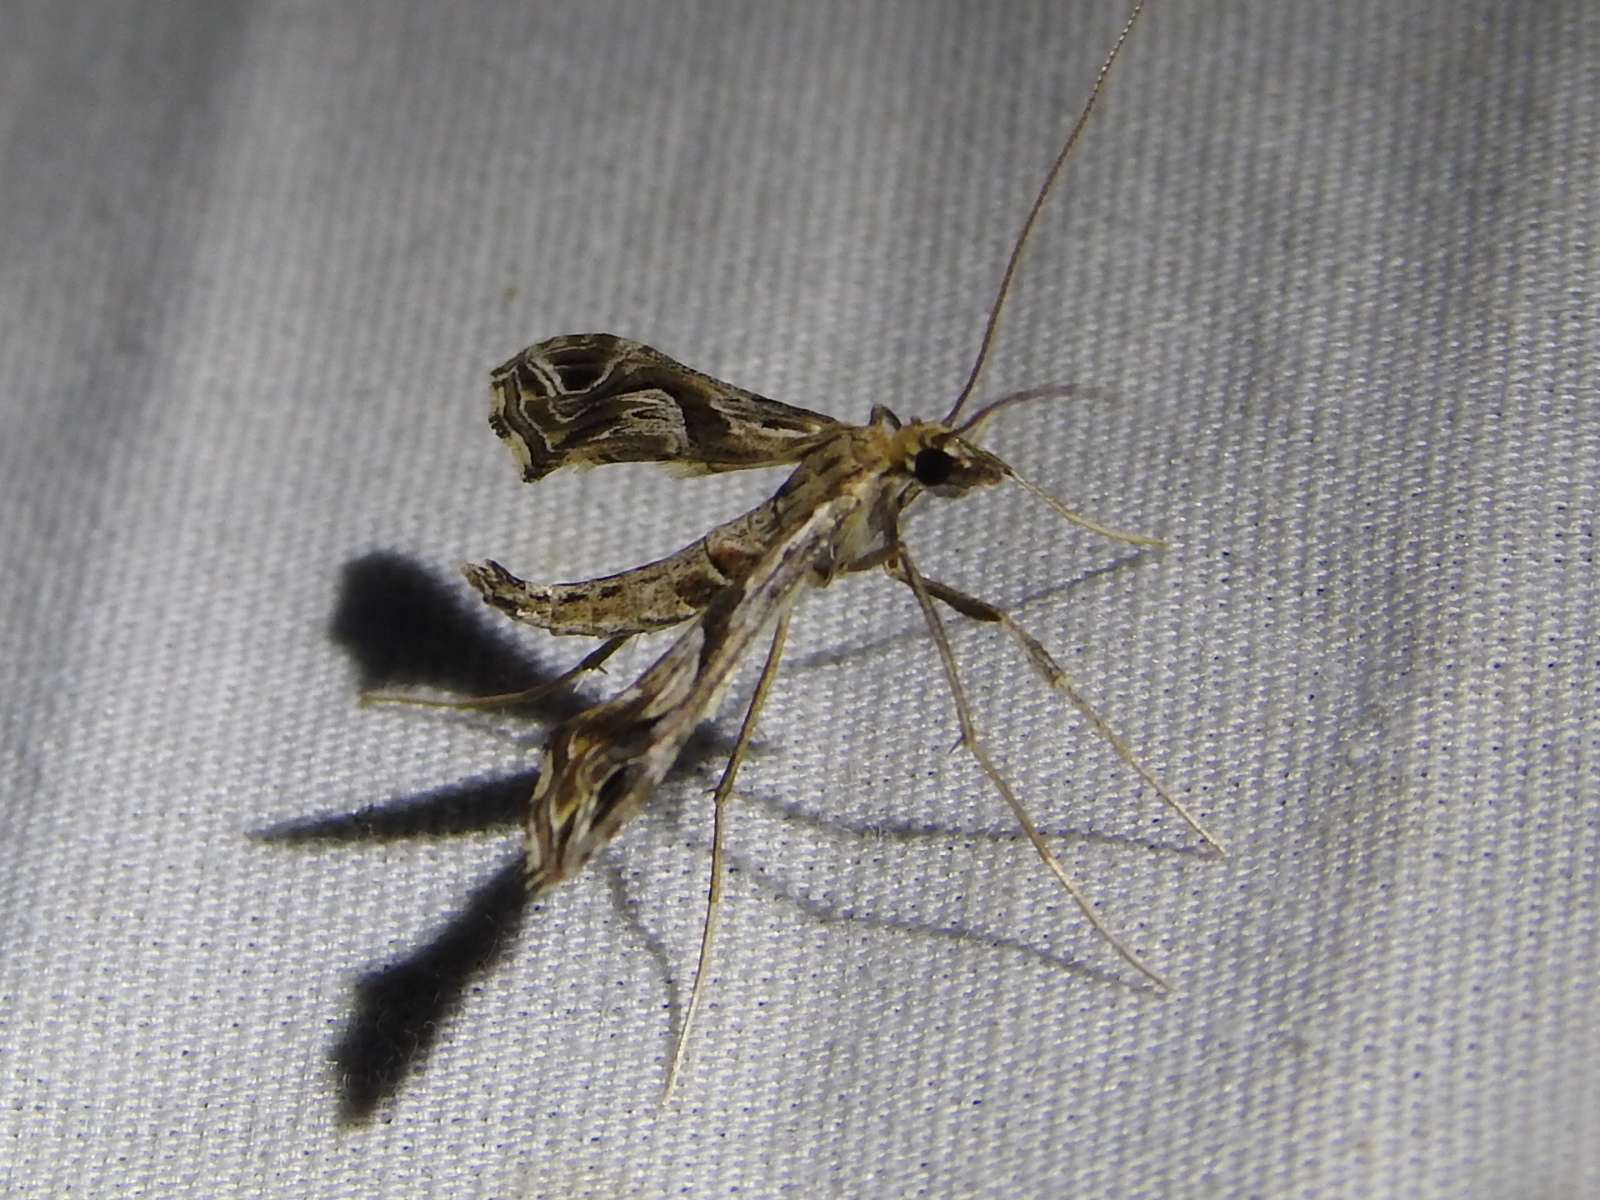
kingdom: Animalia
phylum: Arthropoda
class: Insecta
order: Lepidoptera
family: Crambidae
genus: Lineodes
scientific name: Lineodes integra
